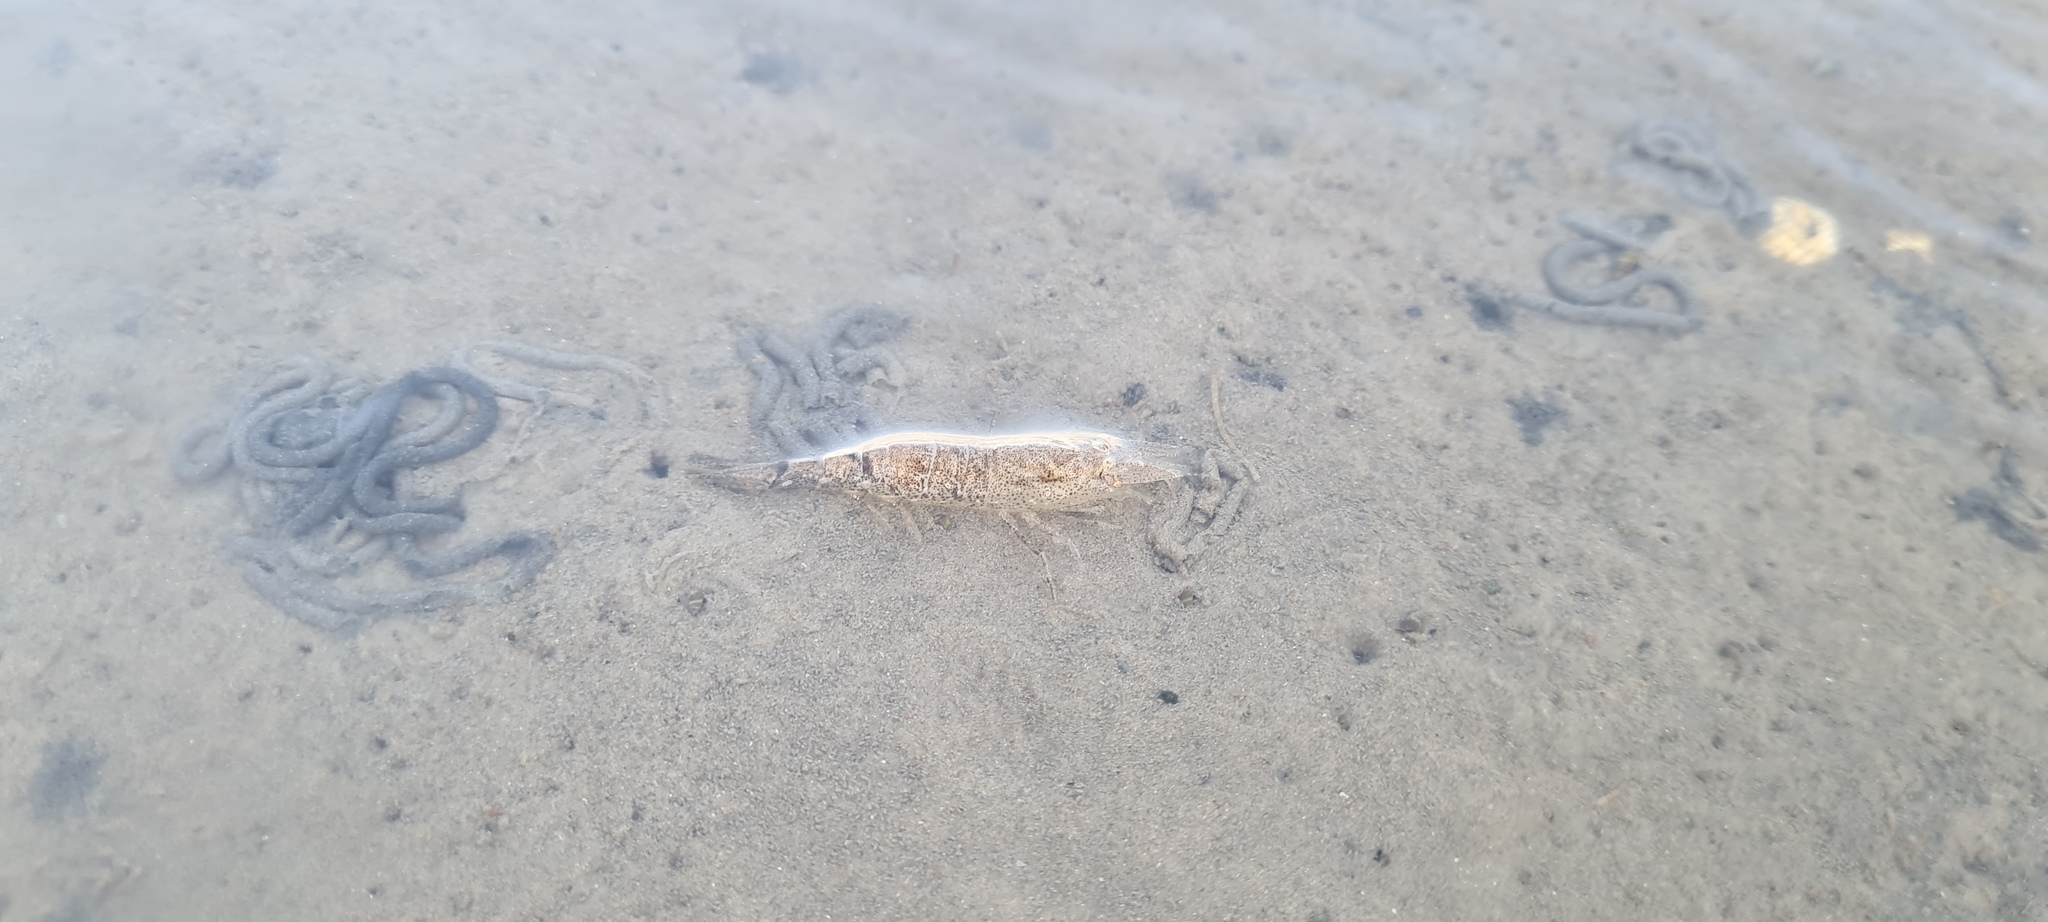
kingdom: Animalia
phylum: Arthropoda
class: Malacostraca
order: Decapoda
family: Crangonidae
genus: Crangon
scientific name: Crangon crangon
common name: Brown shrimp
